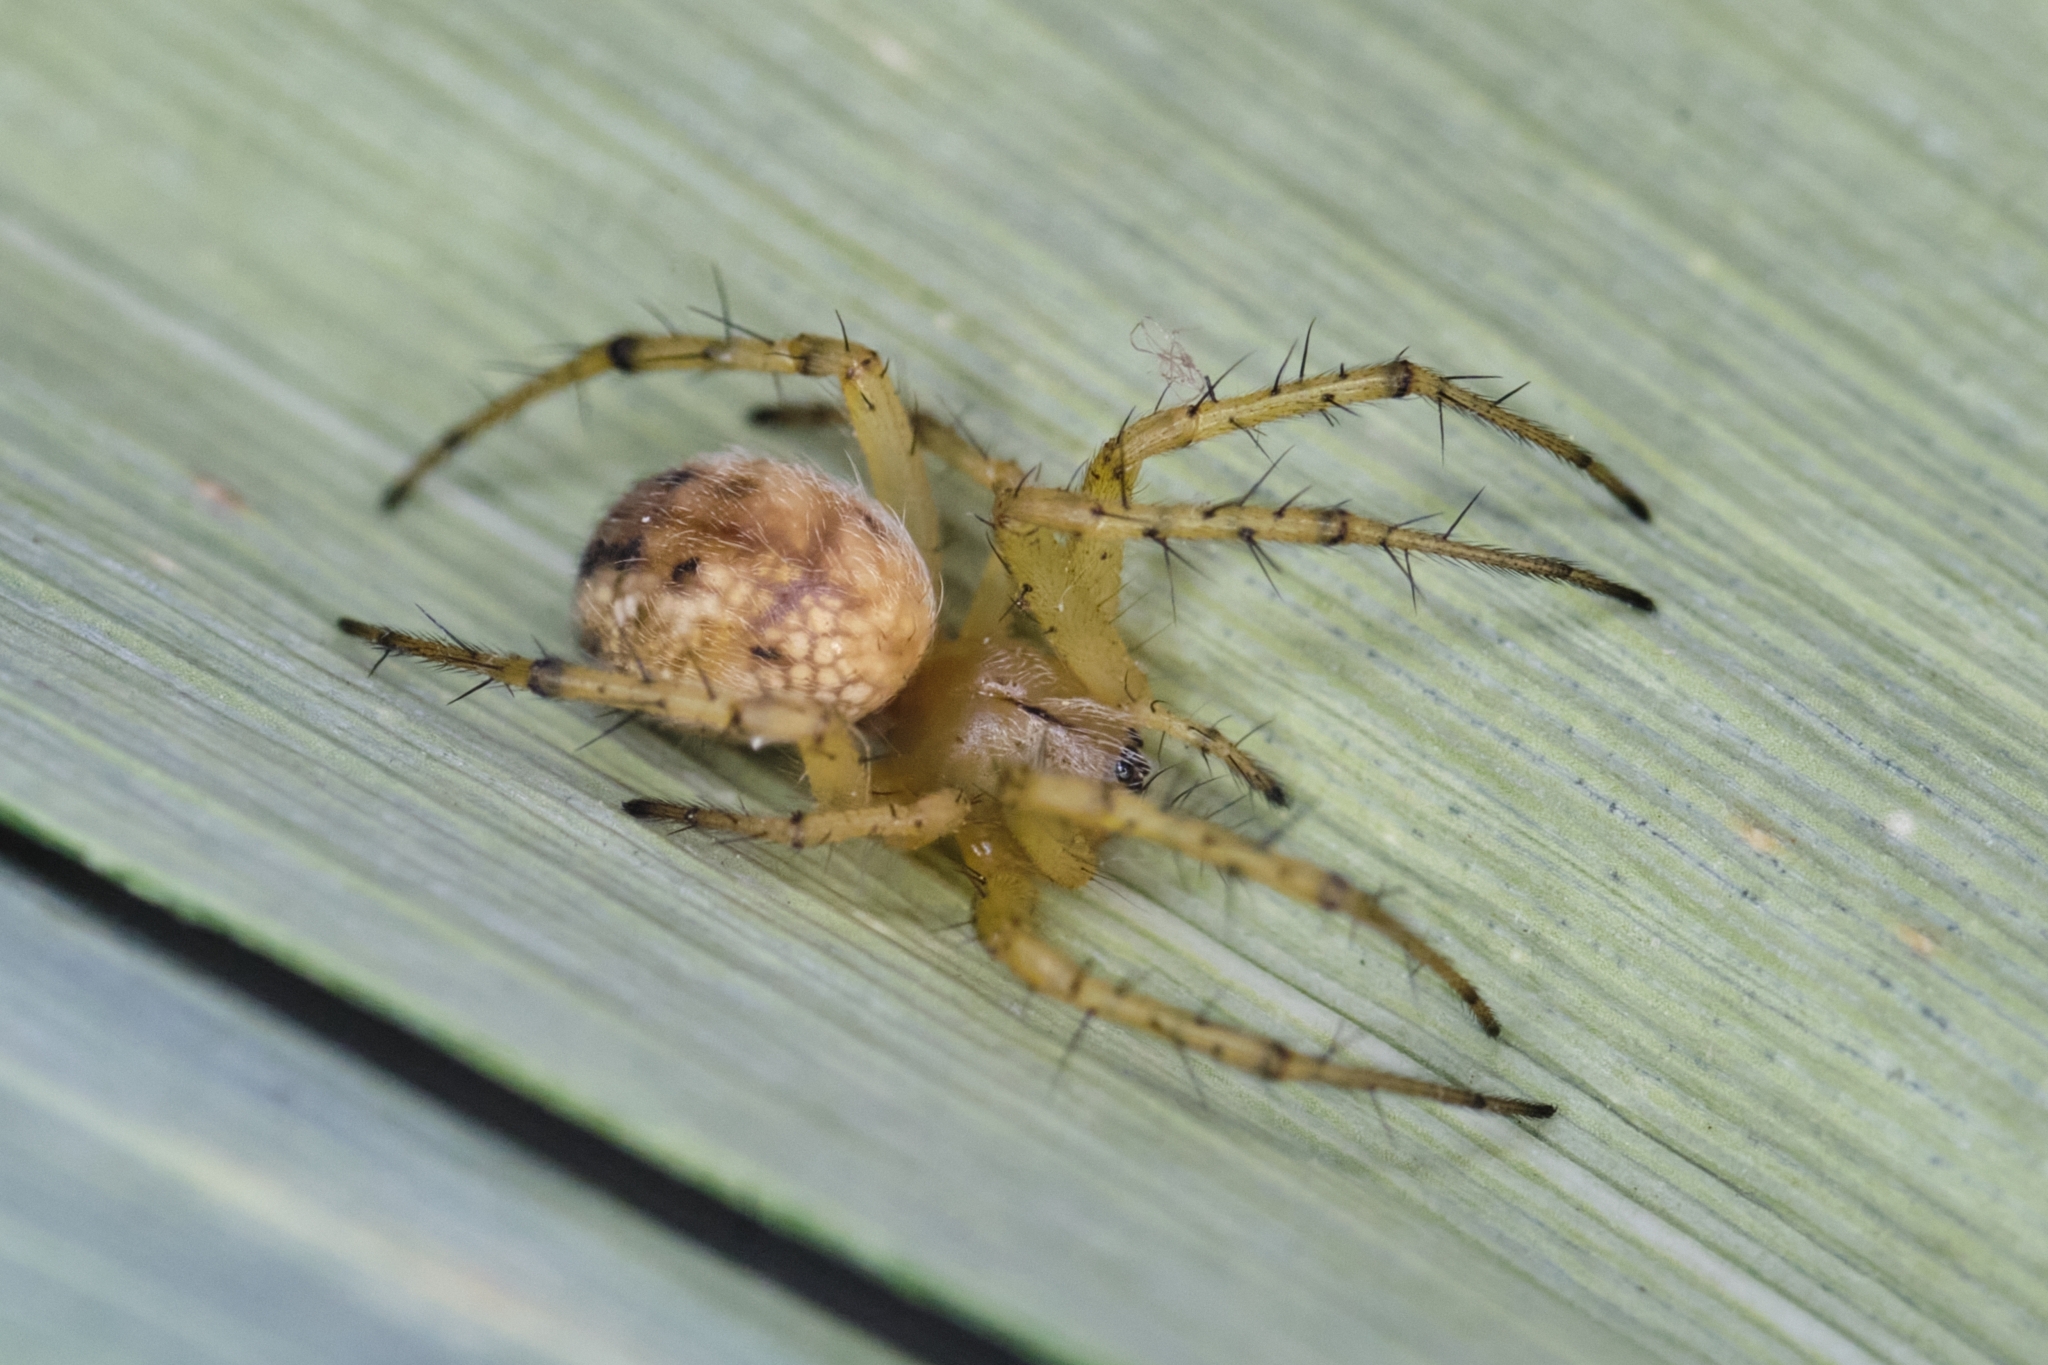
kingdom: Animalia
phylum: Arthropoda
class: Arachnida
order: Araneae
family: Araneidae
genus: Mangora
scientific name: Mangora acalypha
